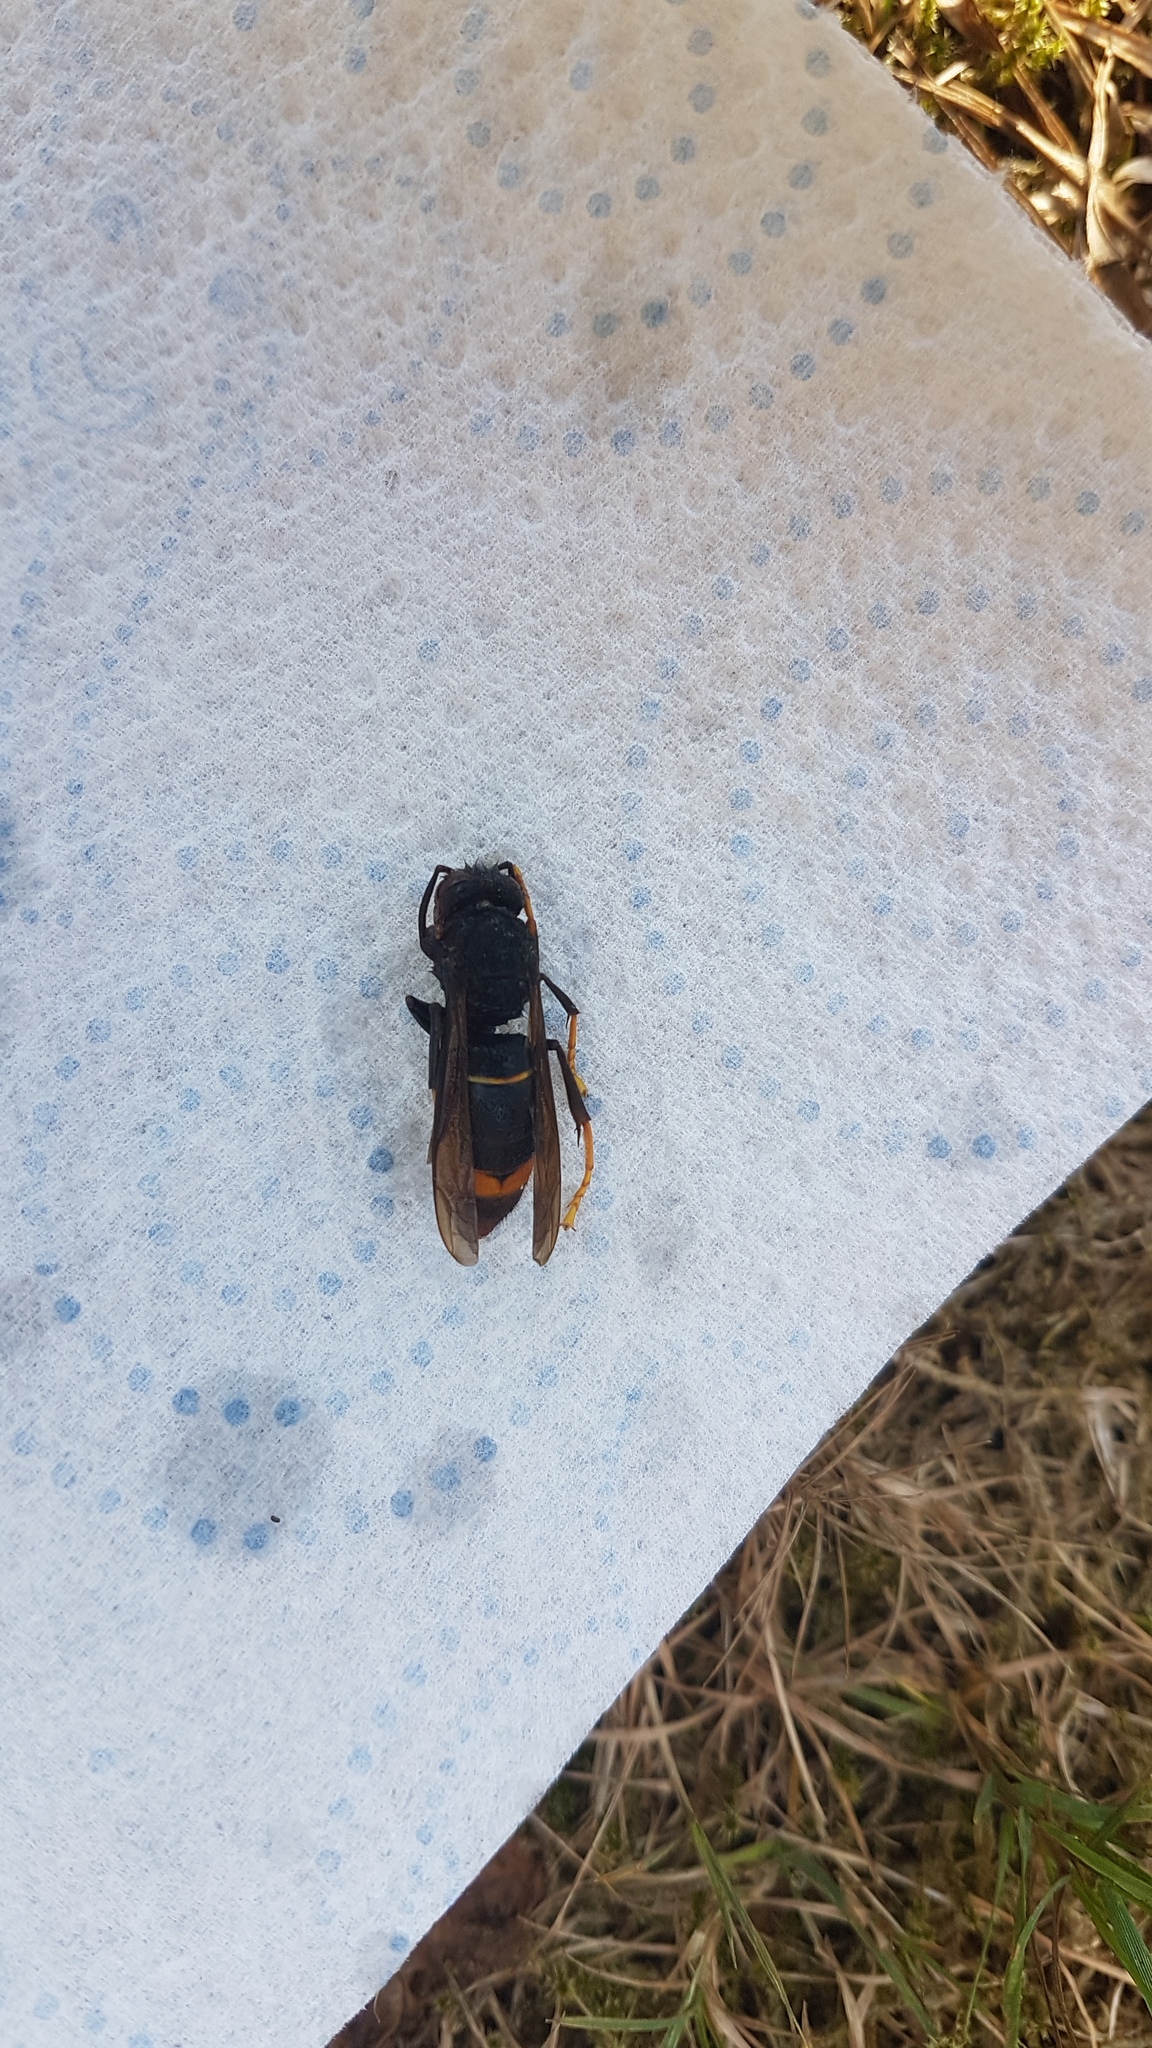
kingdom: Animalia
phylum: Arthropoda
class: Insecta
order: Hymenoptera
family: Vespidae
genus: Vespa
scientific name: Vespa velutina
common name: Asian hornet
